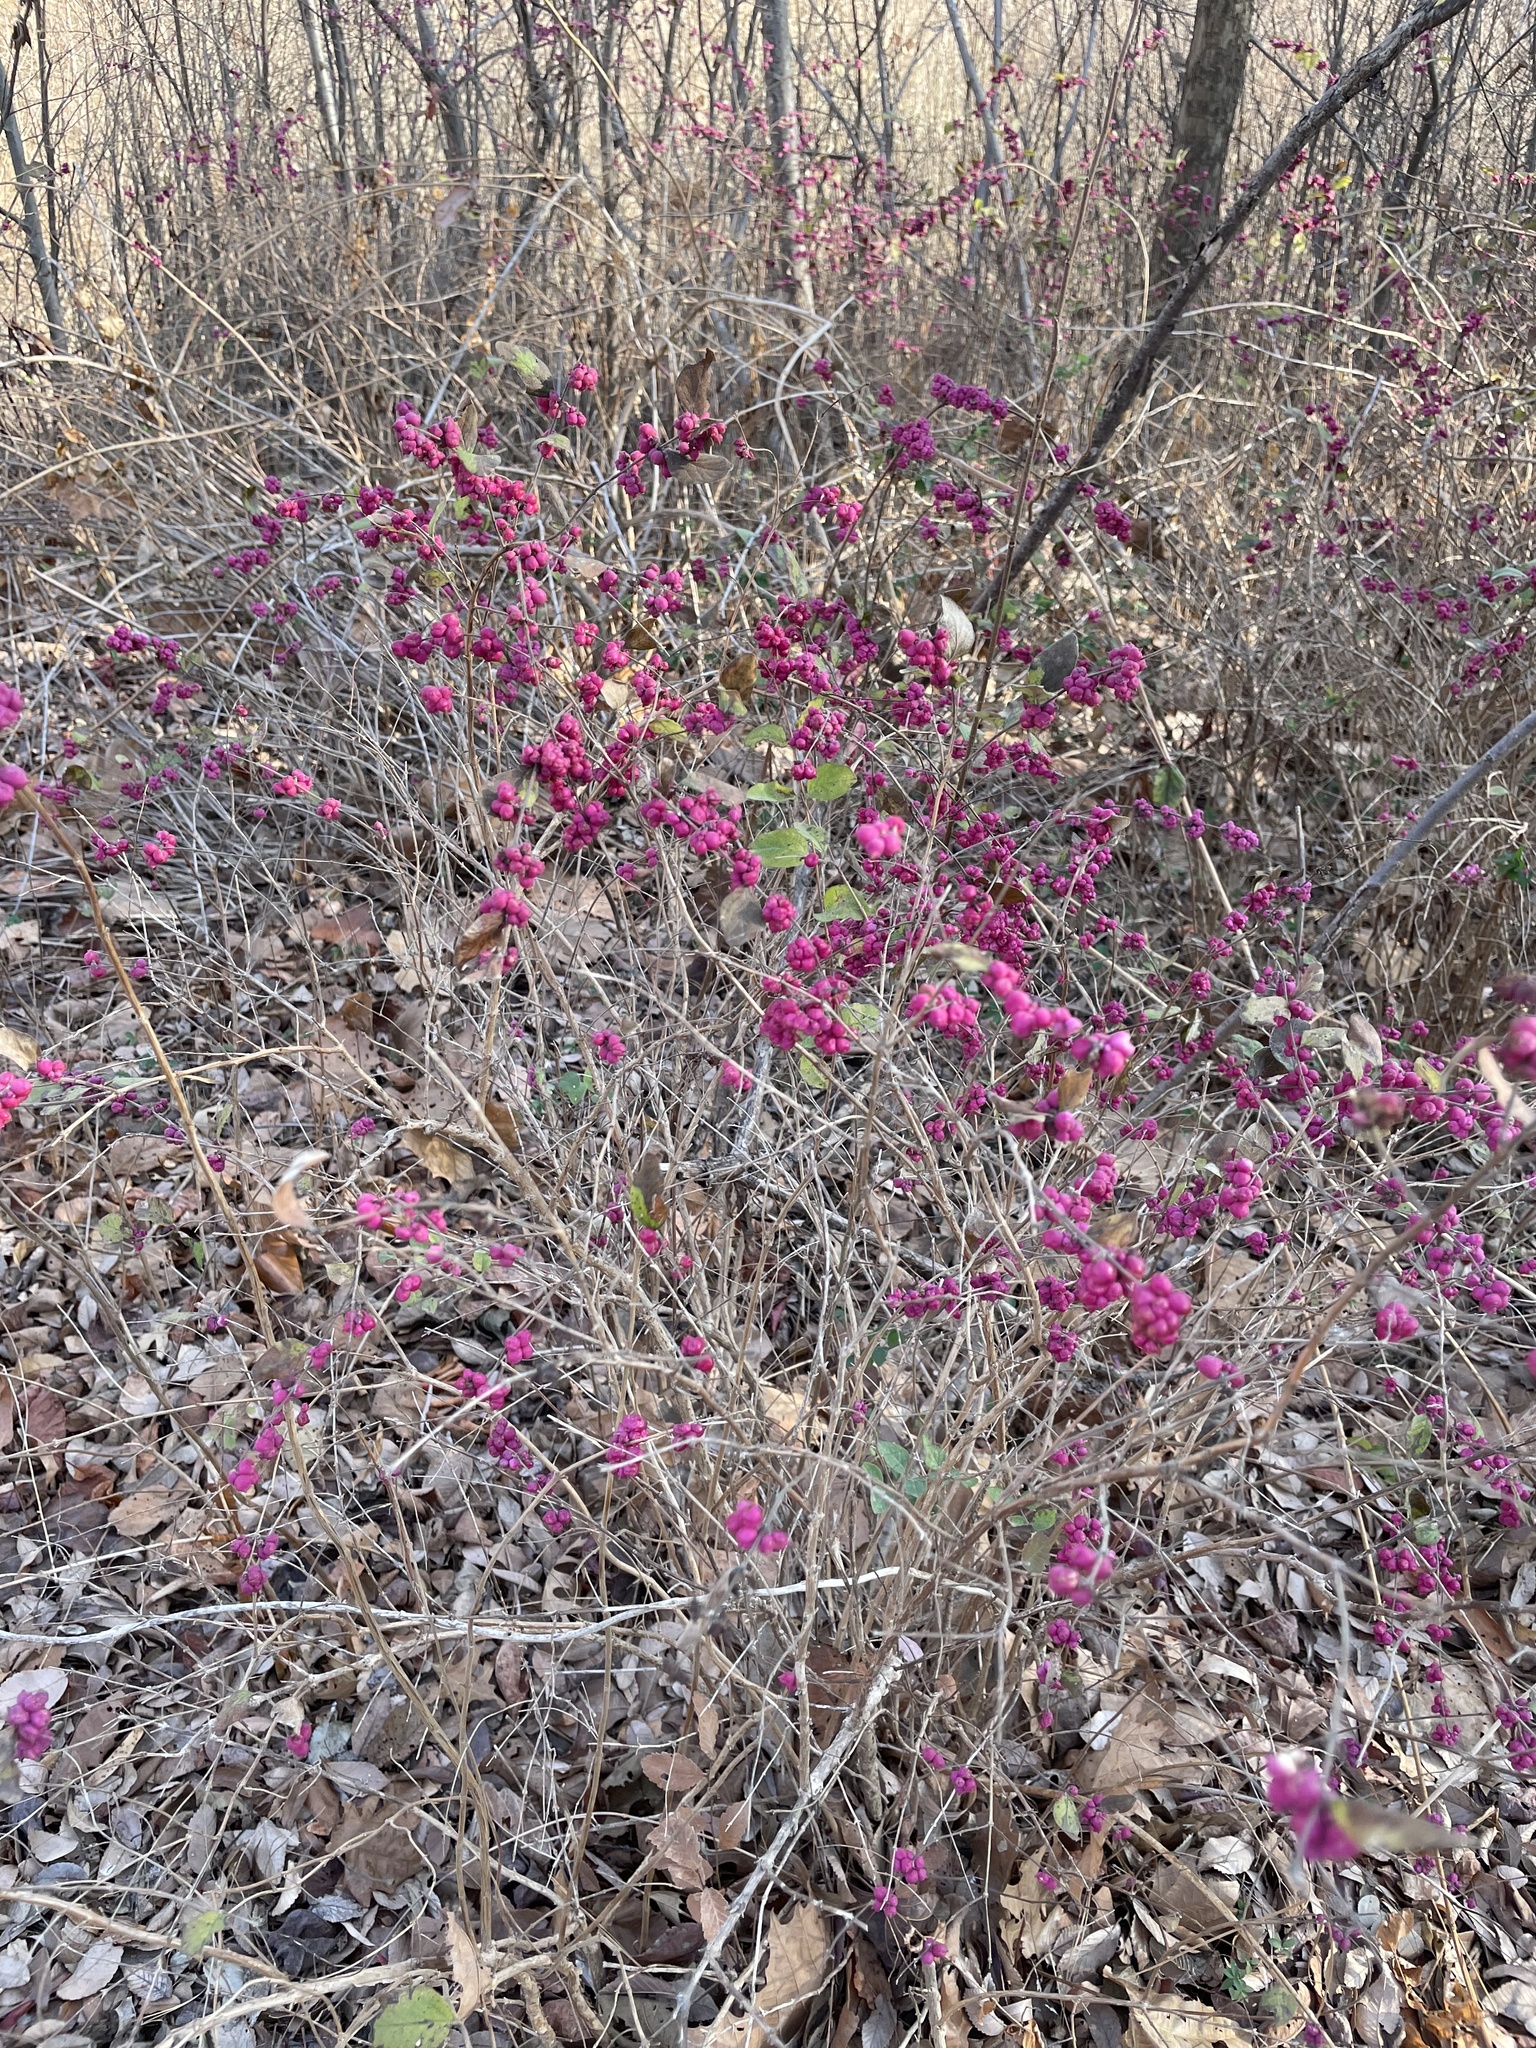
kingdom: Plantae
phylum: Tracheophyta
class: Magnoliopsida
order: Dipsacales
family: Caprifoliaceae
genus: Symphoricarpos
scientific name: Symphoricarpos orbiculatus
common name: Coralberry
